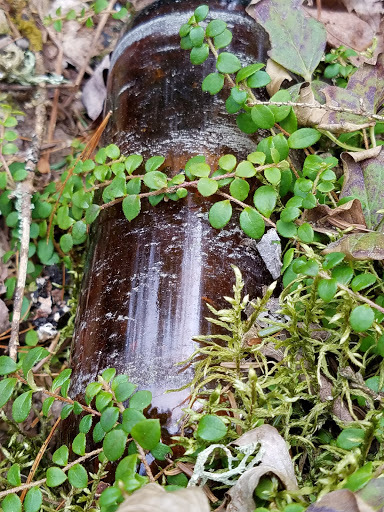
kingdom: Plantae
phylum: Tracheophyta
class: Magnoliopsida
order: Ericales
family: Ericaceae
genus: Gaultheria
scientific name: Gaultheria hispidula
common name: Cancer wintergreen
